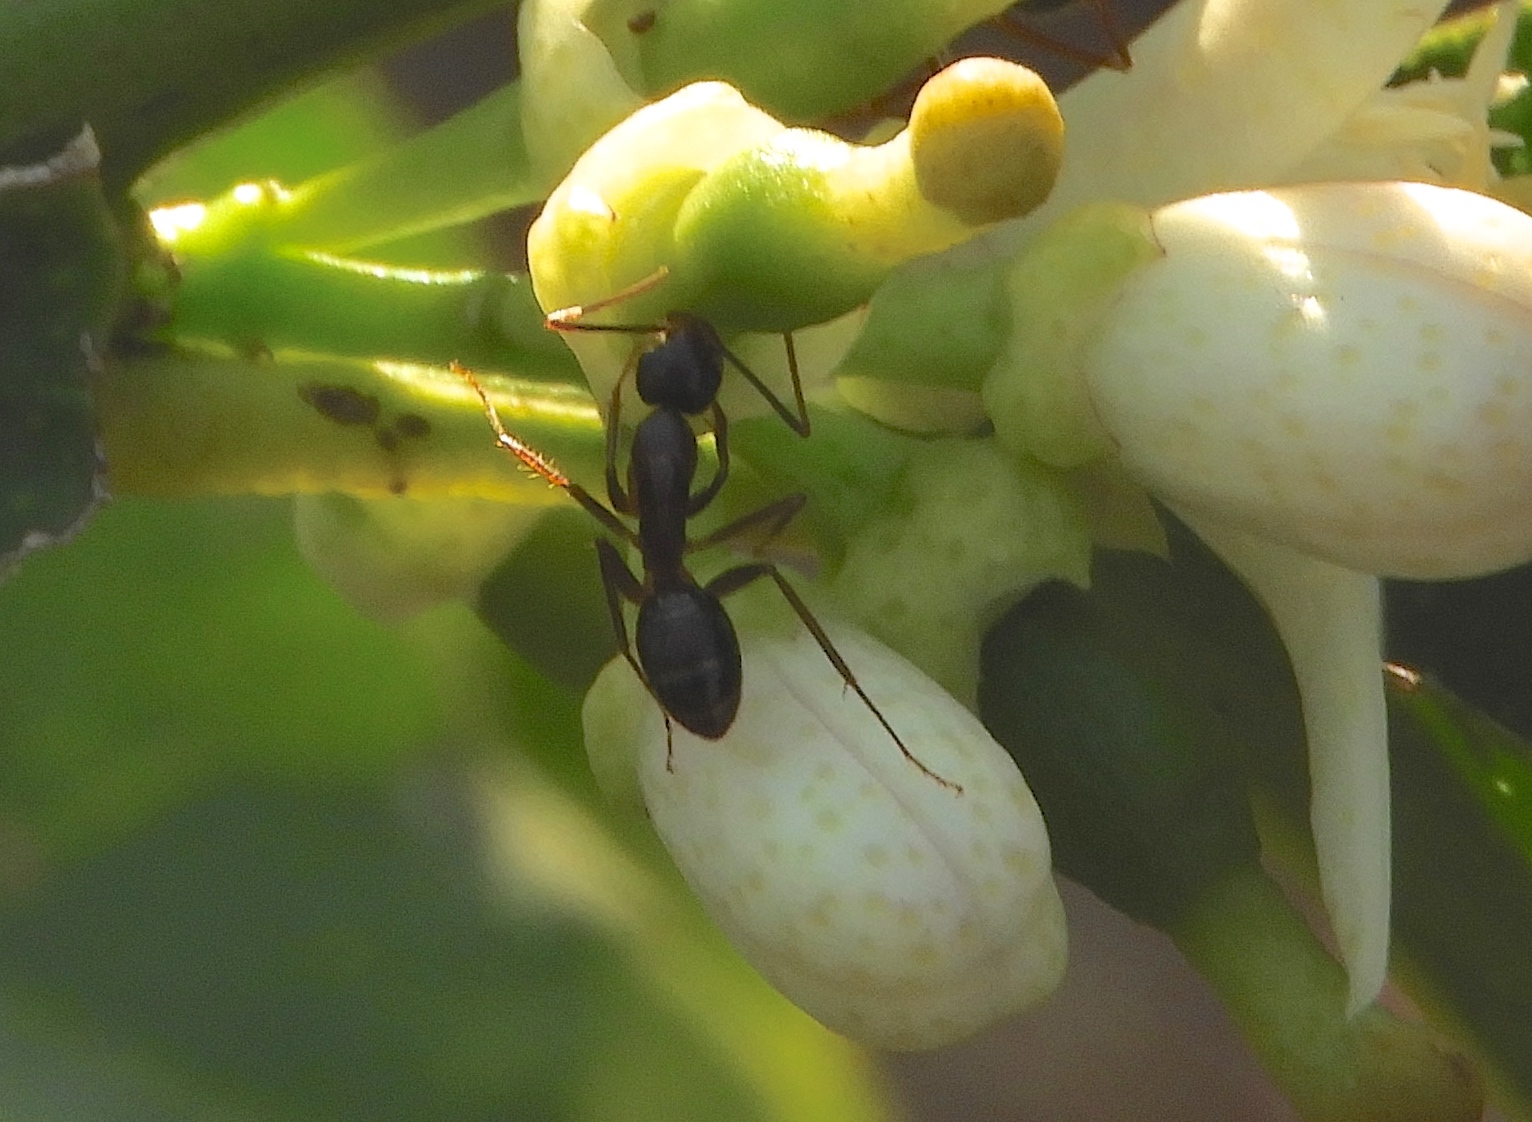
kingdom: Animalia
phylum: Arthropoda
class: Insecta
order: Hymenoptera
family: Formicidae
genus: Camponotus
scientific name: Camponotus
